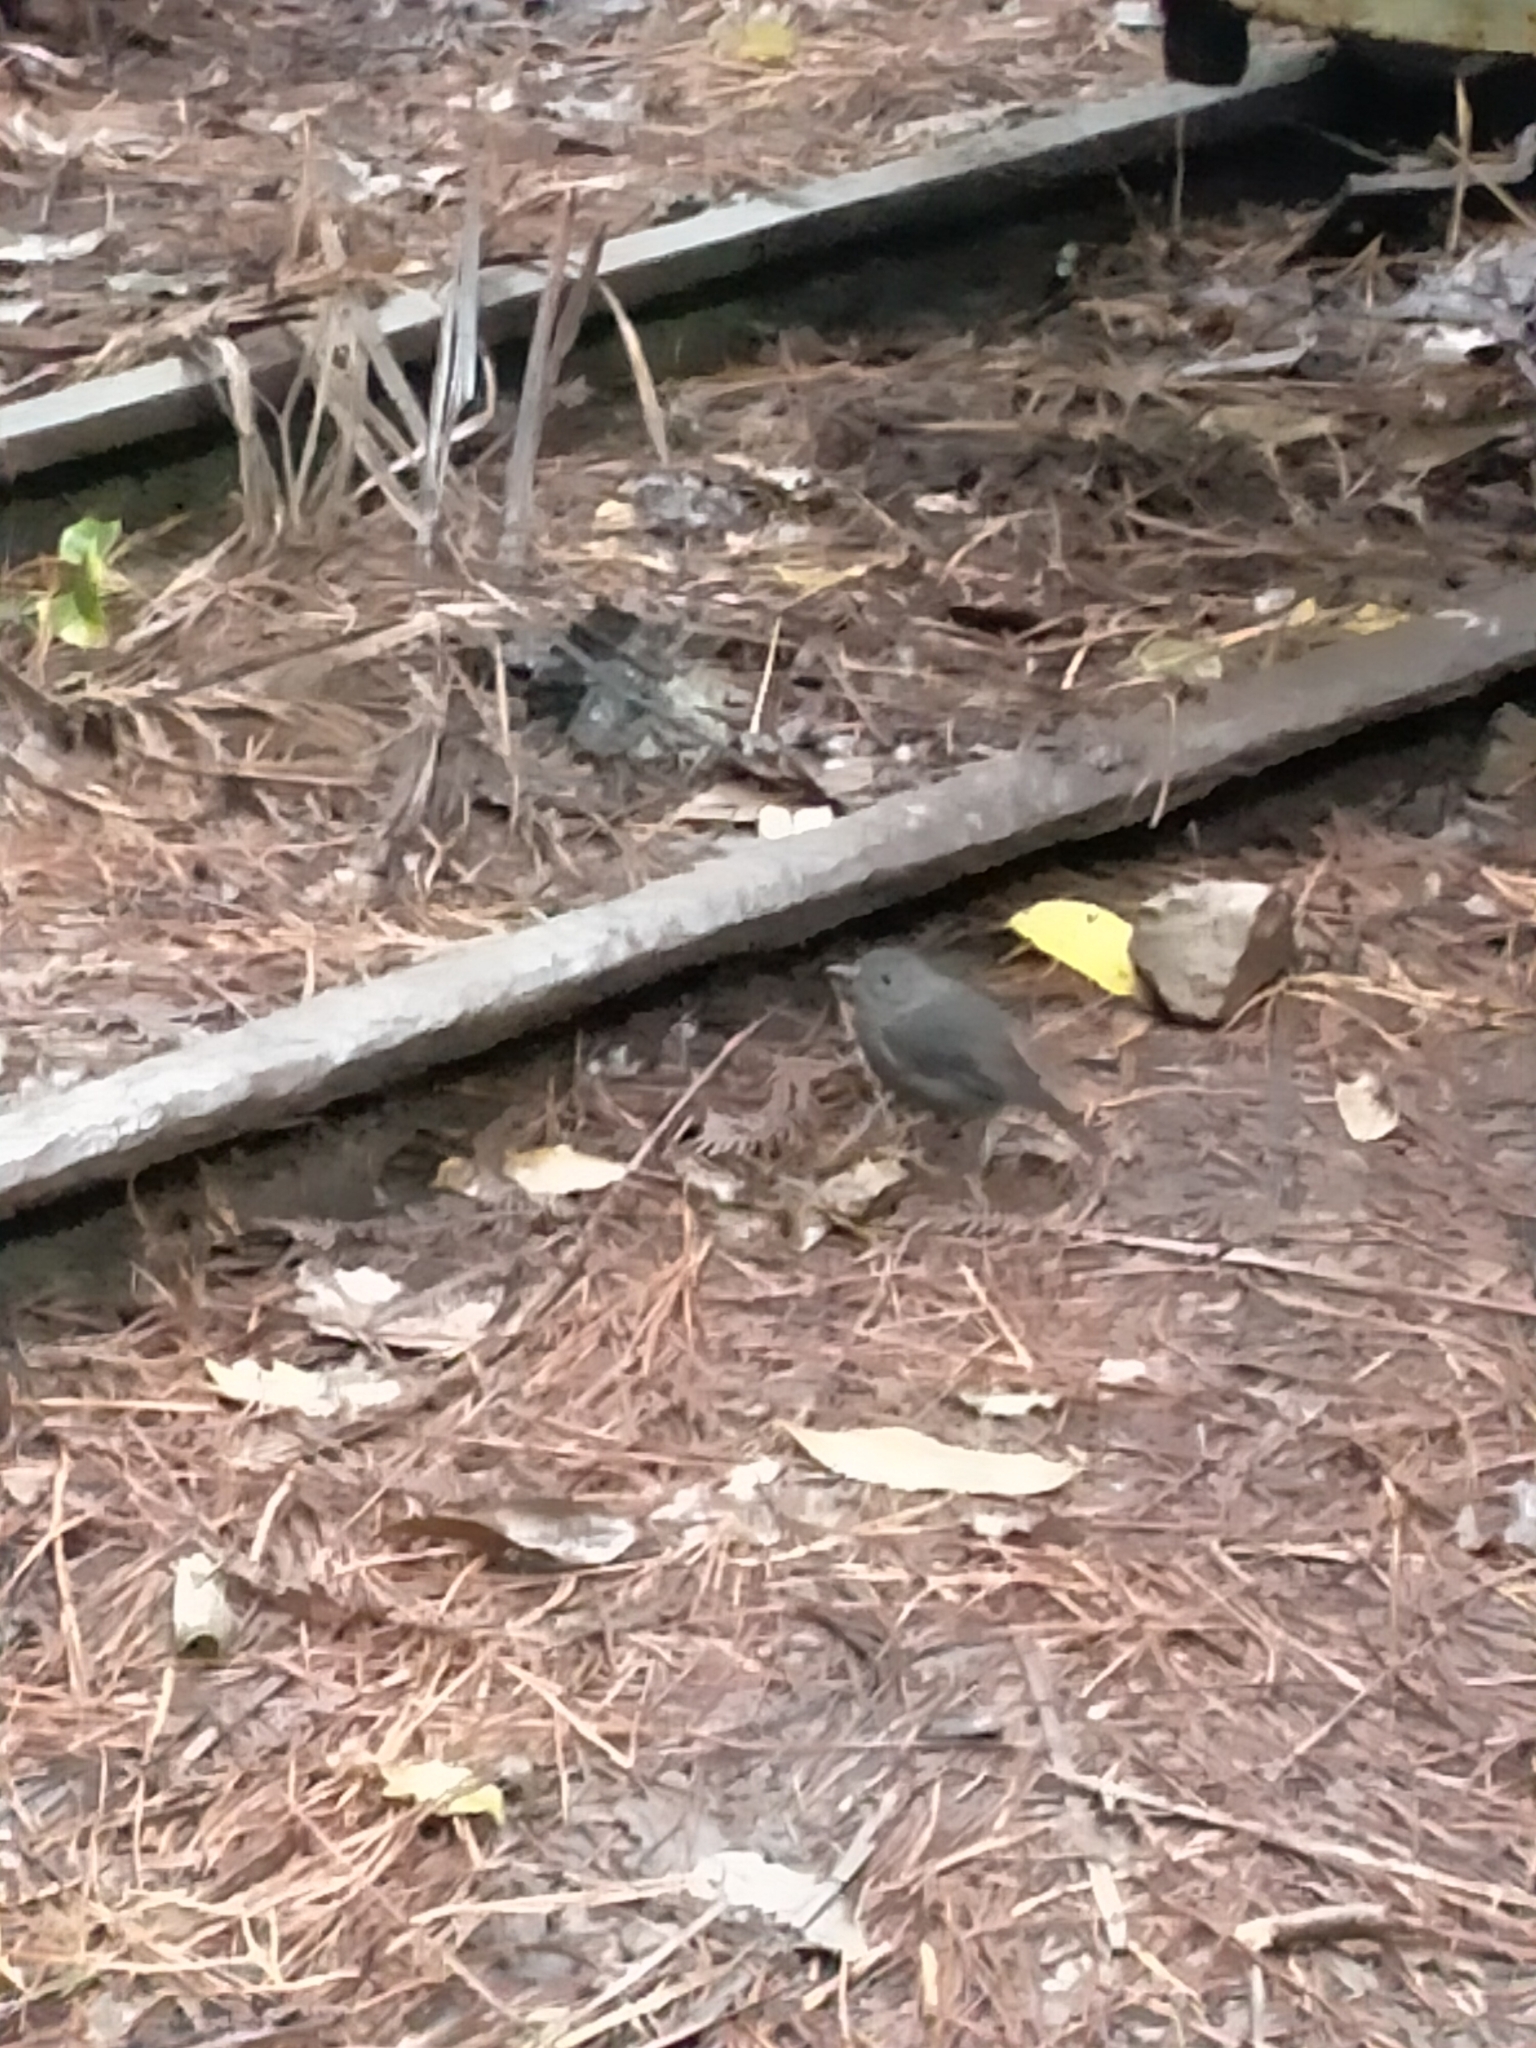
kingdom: Animalia
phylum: Chordata
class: Aves
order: Passeriformes
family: Petroicidae
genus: Petroica
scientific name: Petroica australis
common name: New zealand robin
